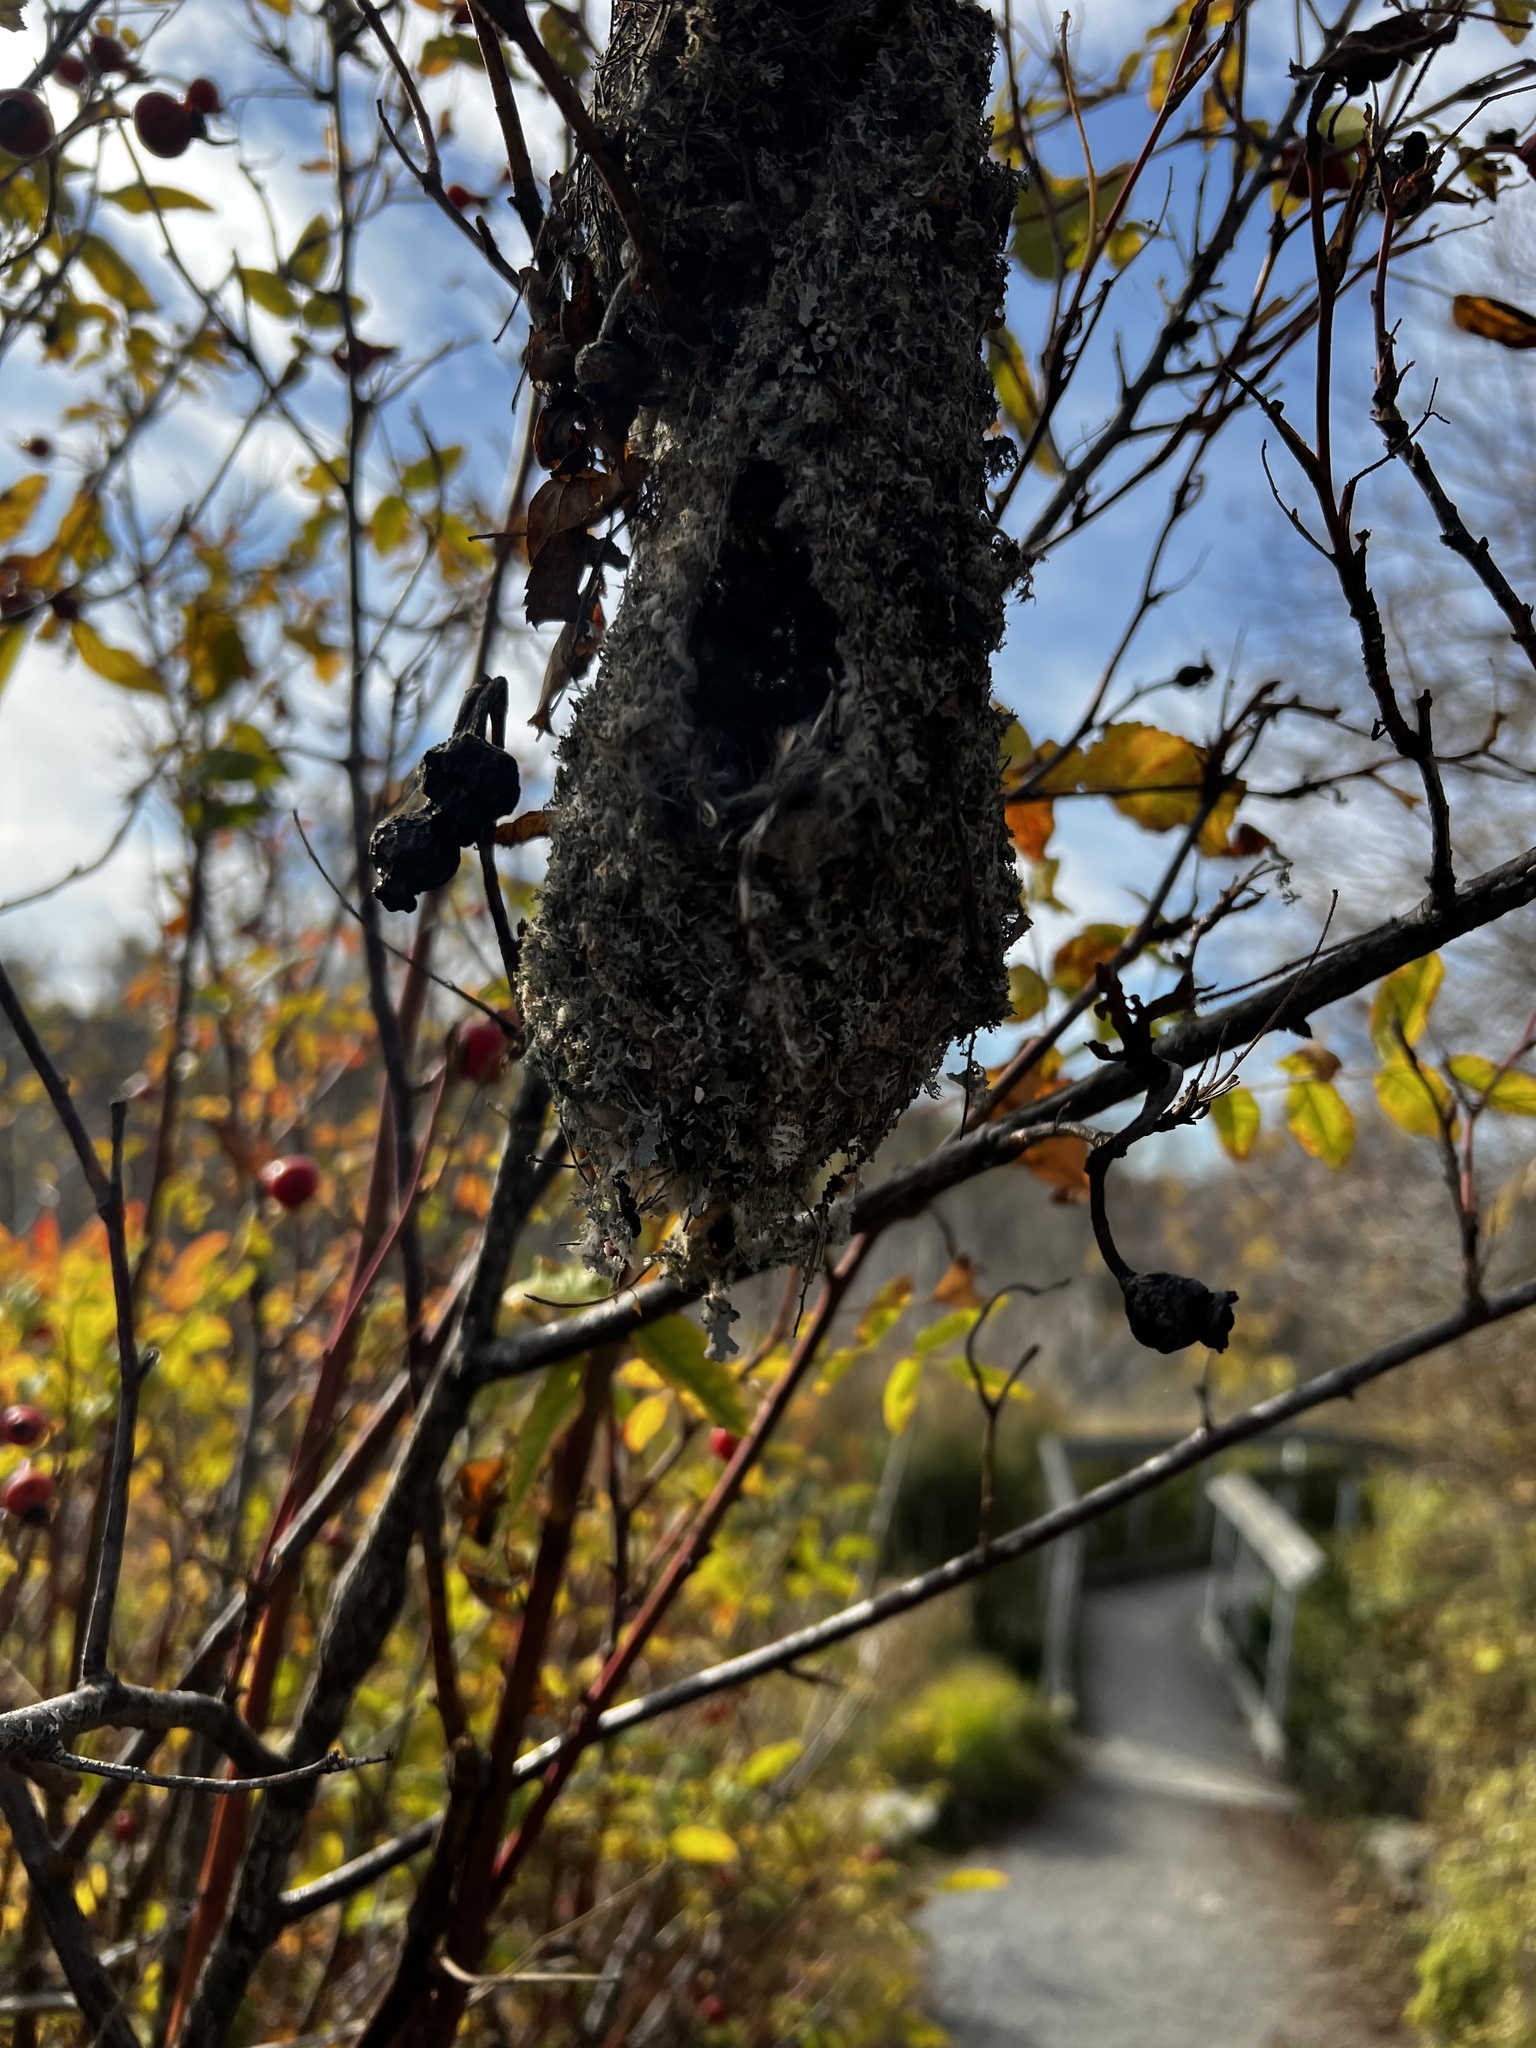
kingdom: Animalia
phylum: Chordata
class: Aves
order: Passeriformes
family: Aegithalidae
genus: Psaltriparus
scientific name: Psaltriparus minimus
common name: American bushtit
